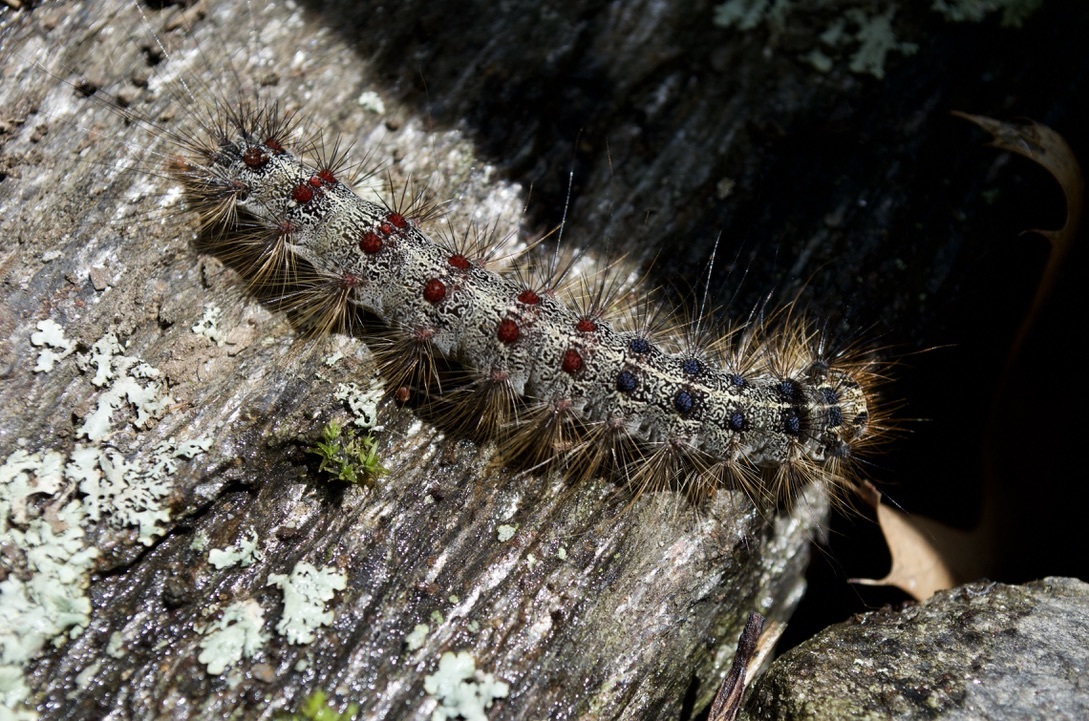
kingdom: Animalia
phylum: Arthropoda
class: Insecta
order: Lepidoptera
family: Erebidae
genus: Lymantria
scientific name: Lymantria dispar
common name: Gypsy moth
